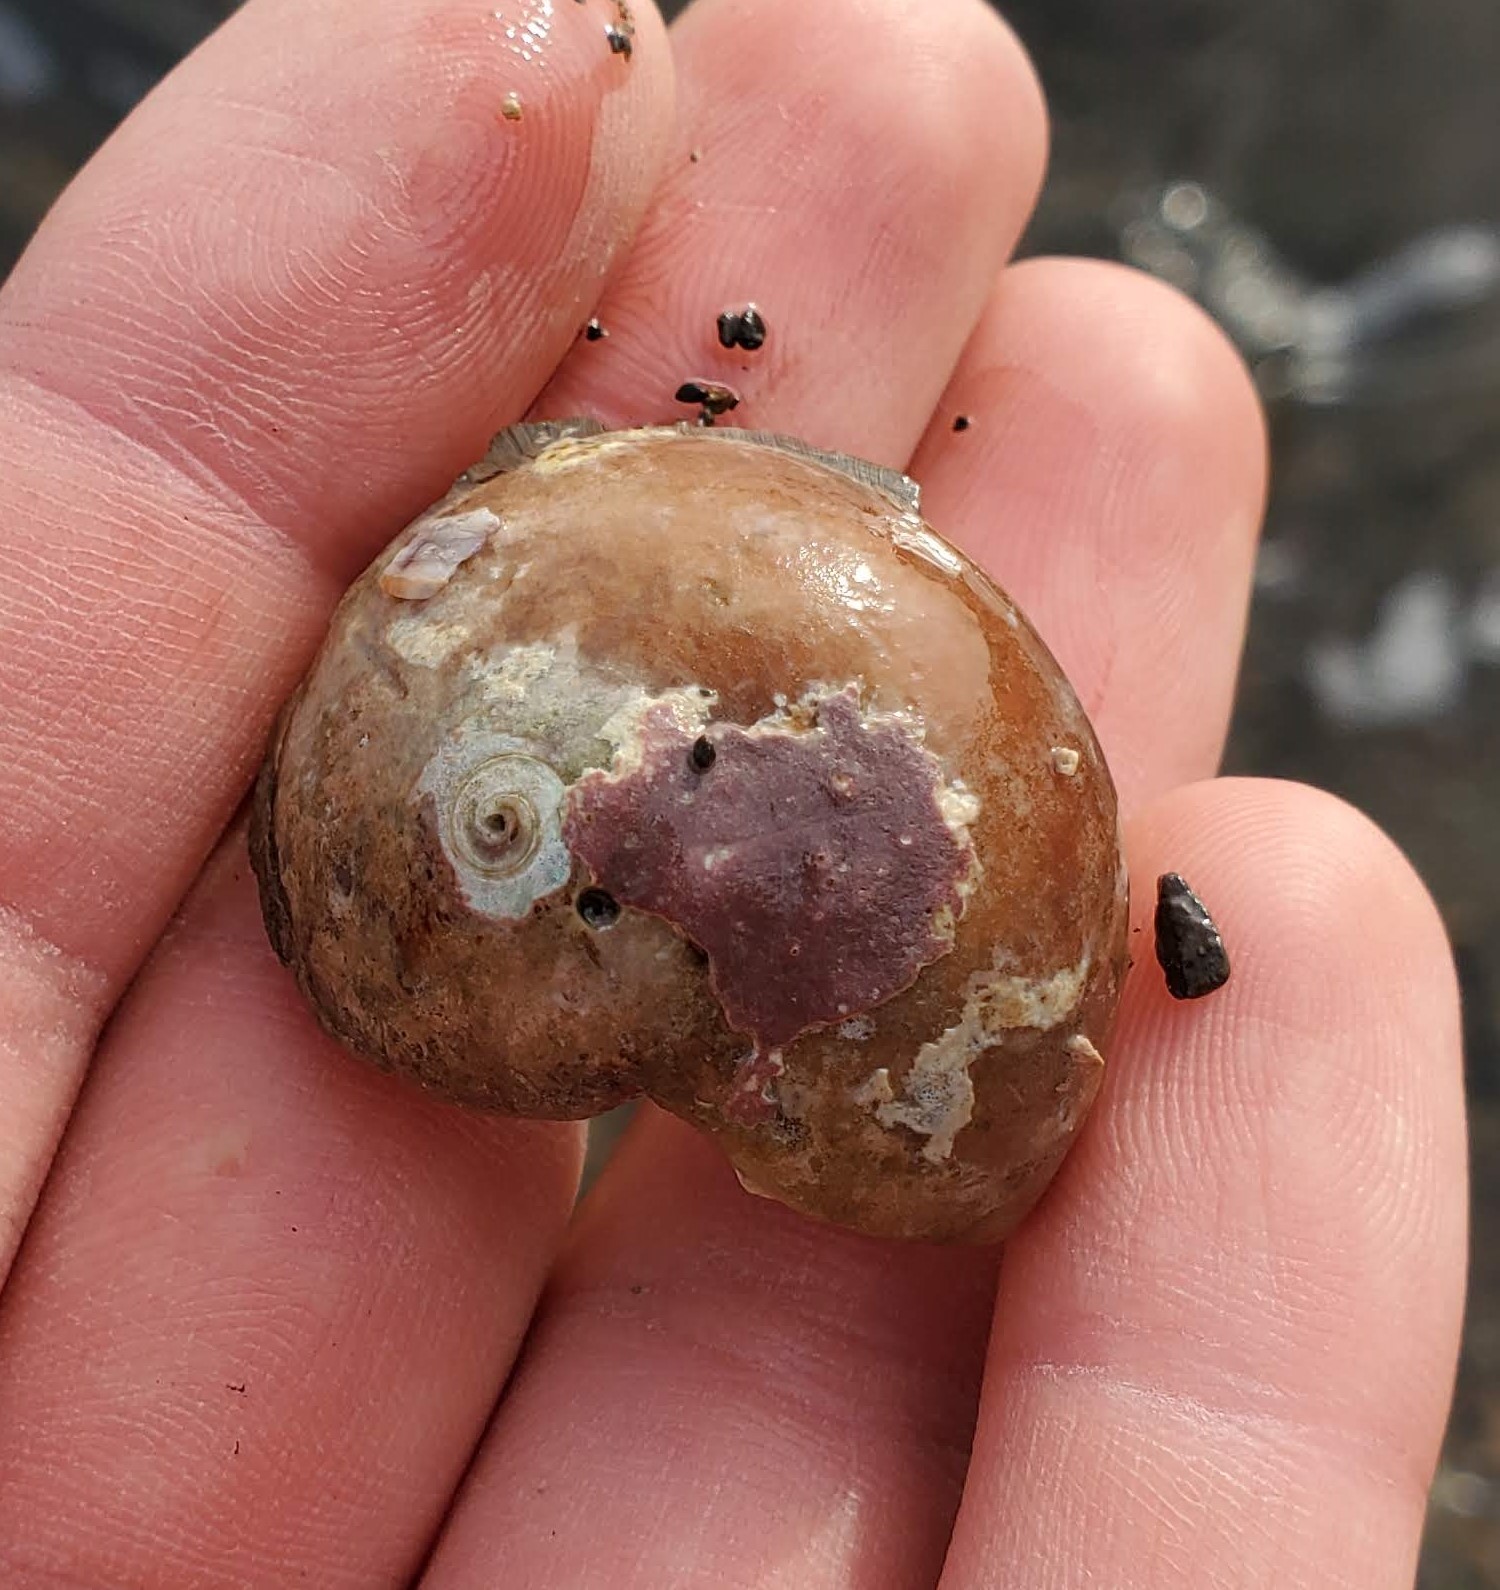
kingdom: Animalia
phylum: Mollusca
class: Gastropoda
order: Trochida
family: Tegulidae
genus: Norrisia
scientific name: Norrisia norrisii
